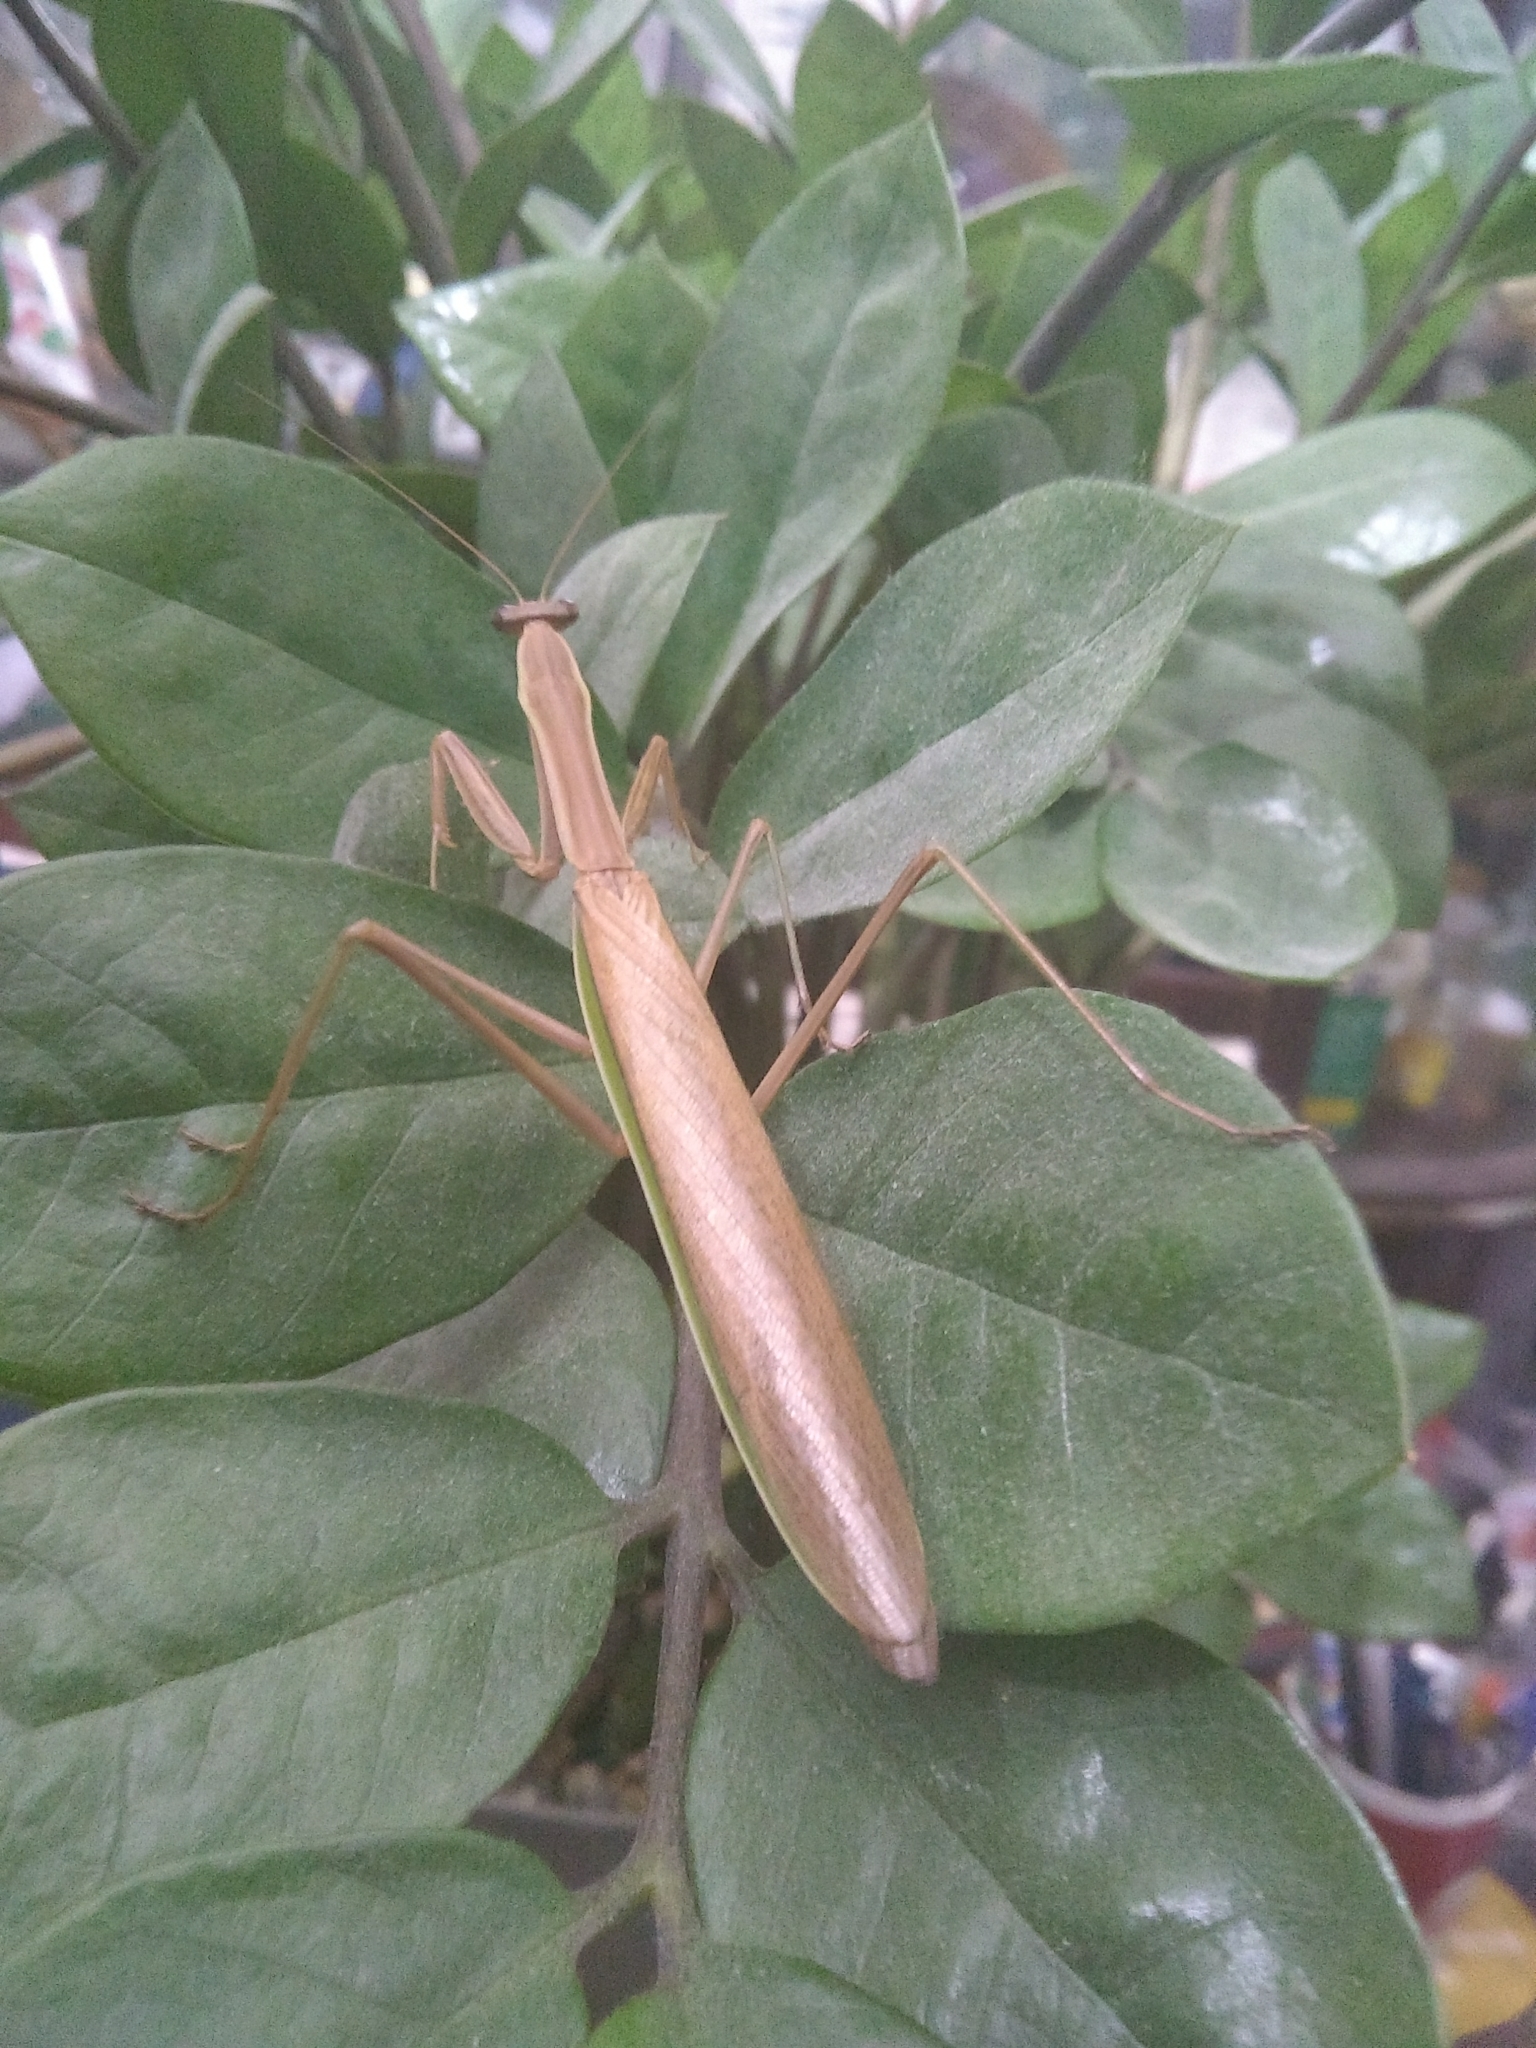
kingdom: Animalia
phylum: Arthropoda
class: Insecta
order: Mantodea
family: Mantidae
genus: Tenodera
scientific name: Tenodera sinensis
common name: Chinese mantis
